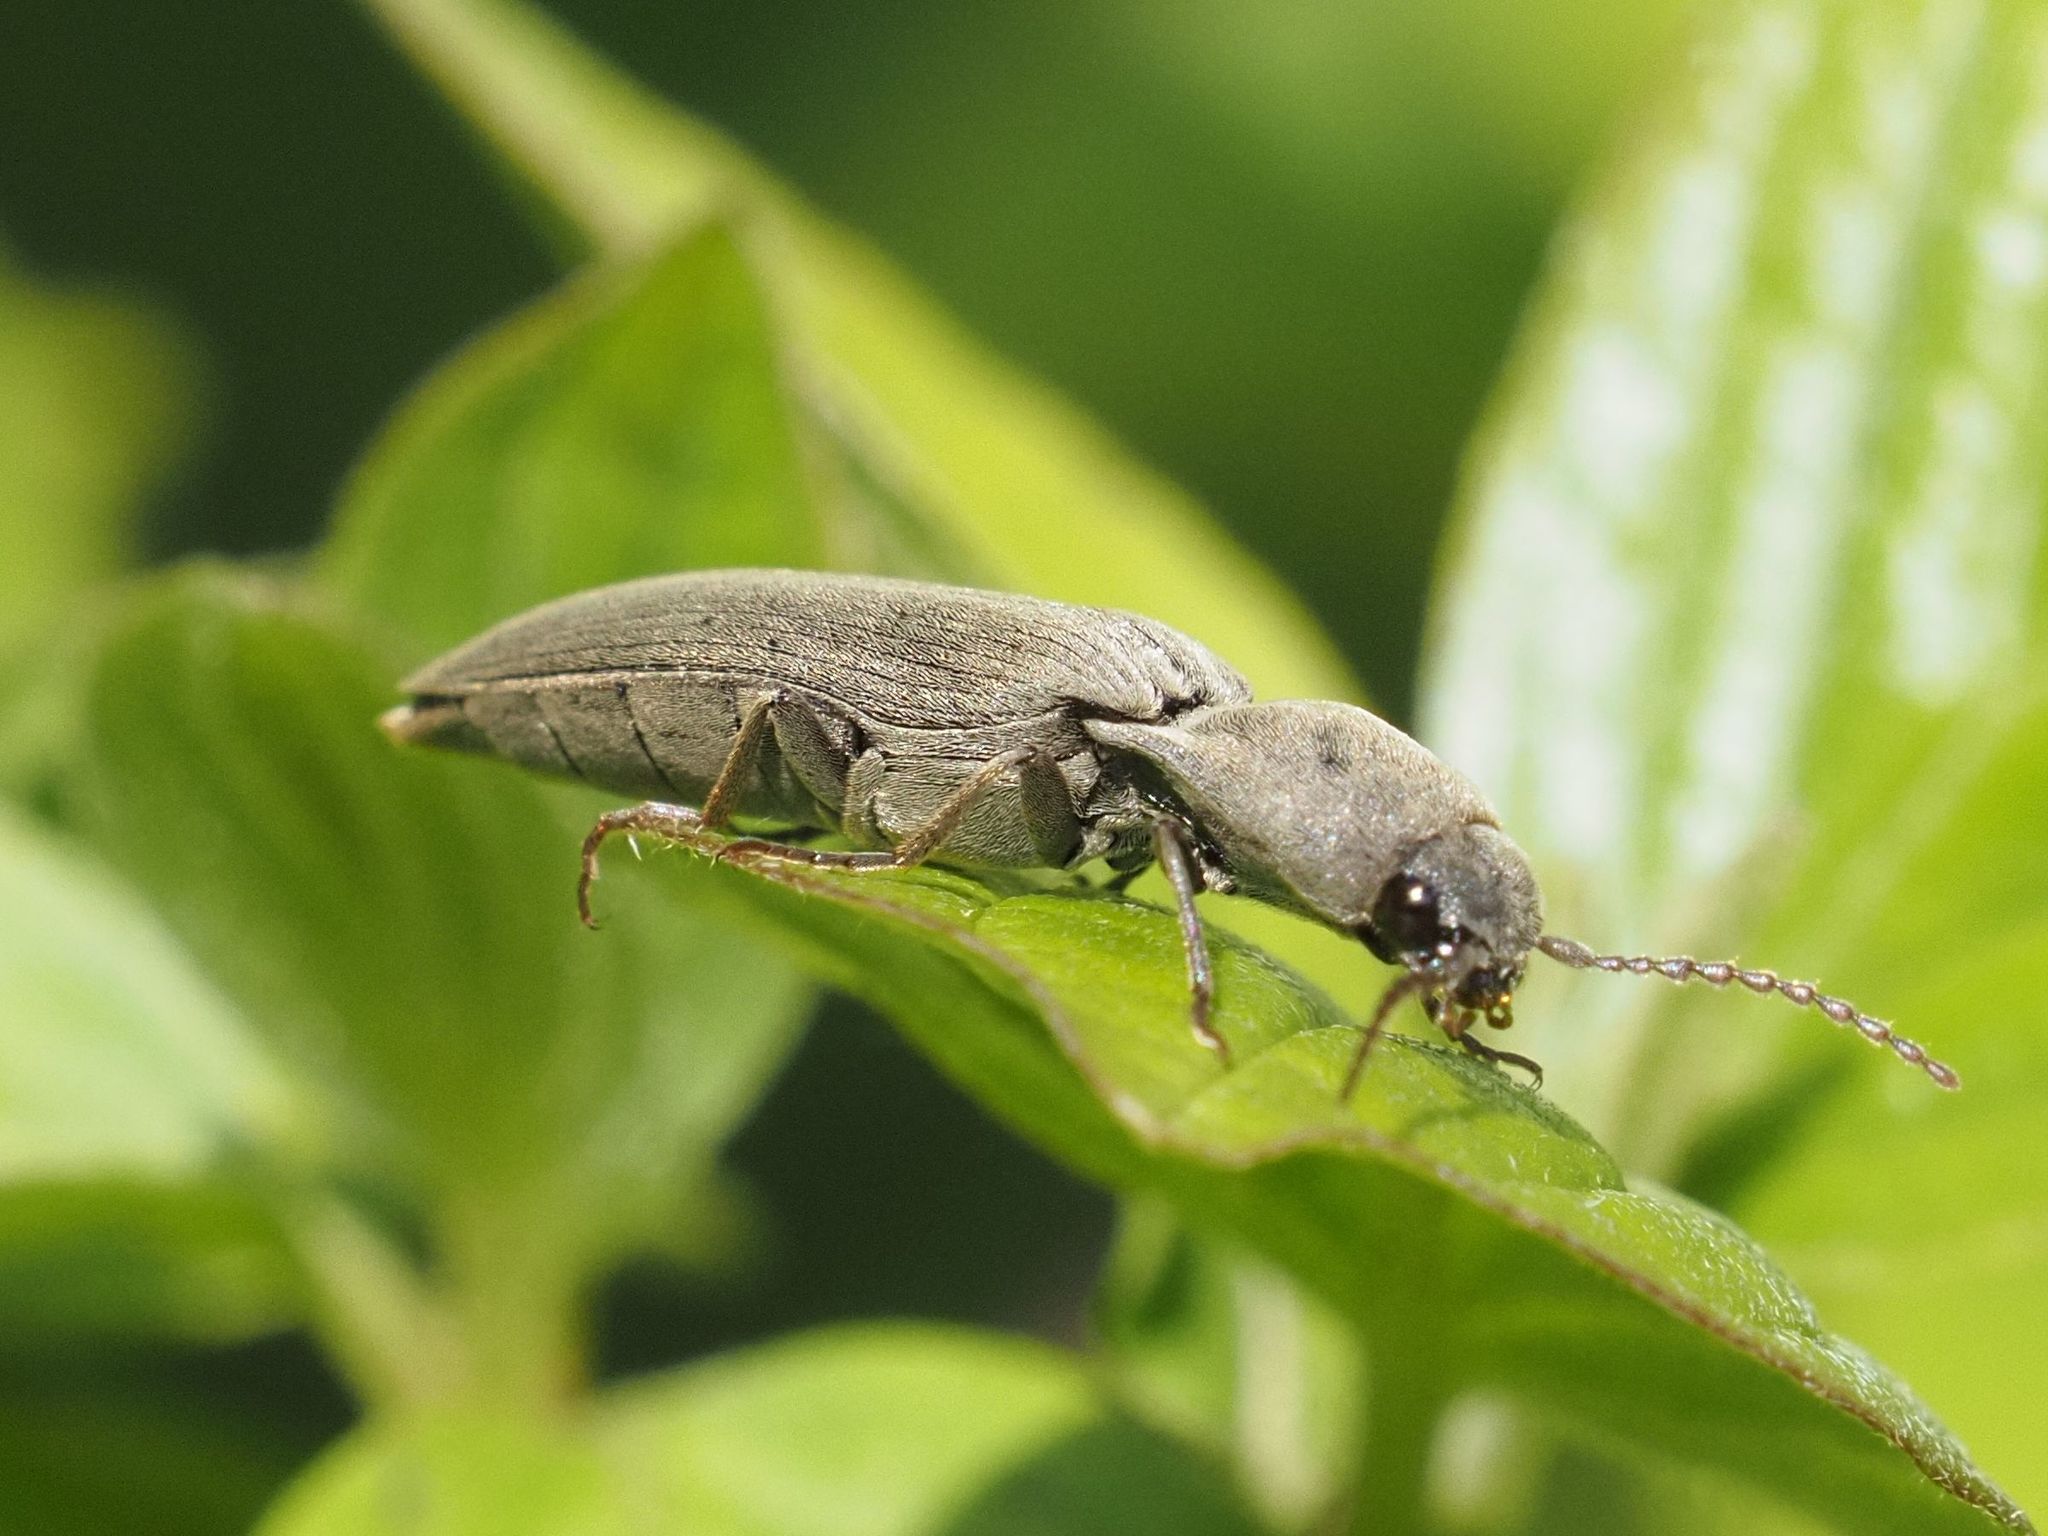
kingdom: Animalia
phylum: Arthropoda
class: Insecta
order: Coleoptera
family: Elateridae
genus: Agriotes
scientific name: Agriotes pilosellus
